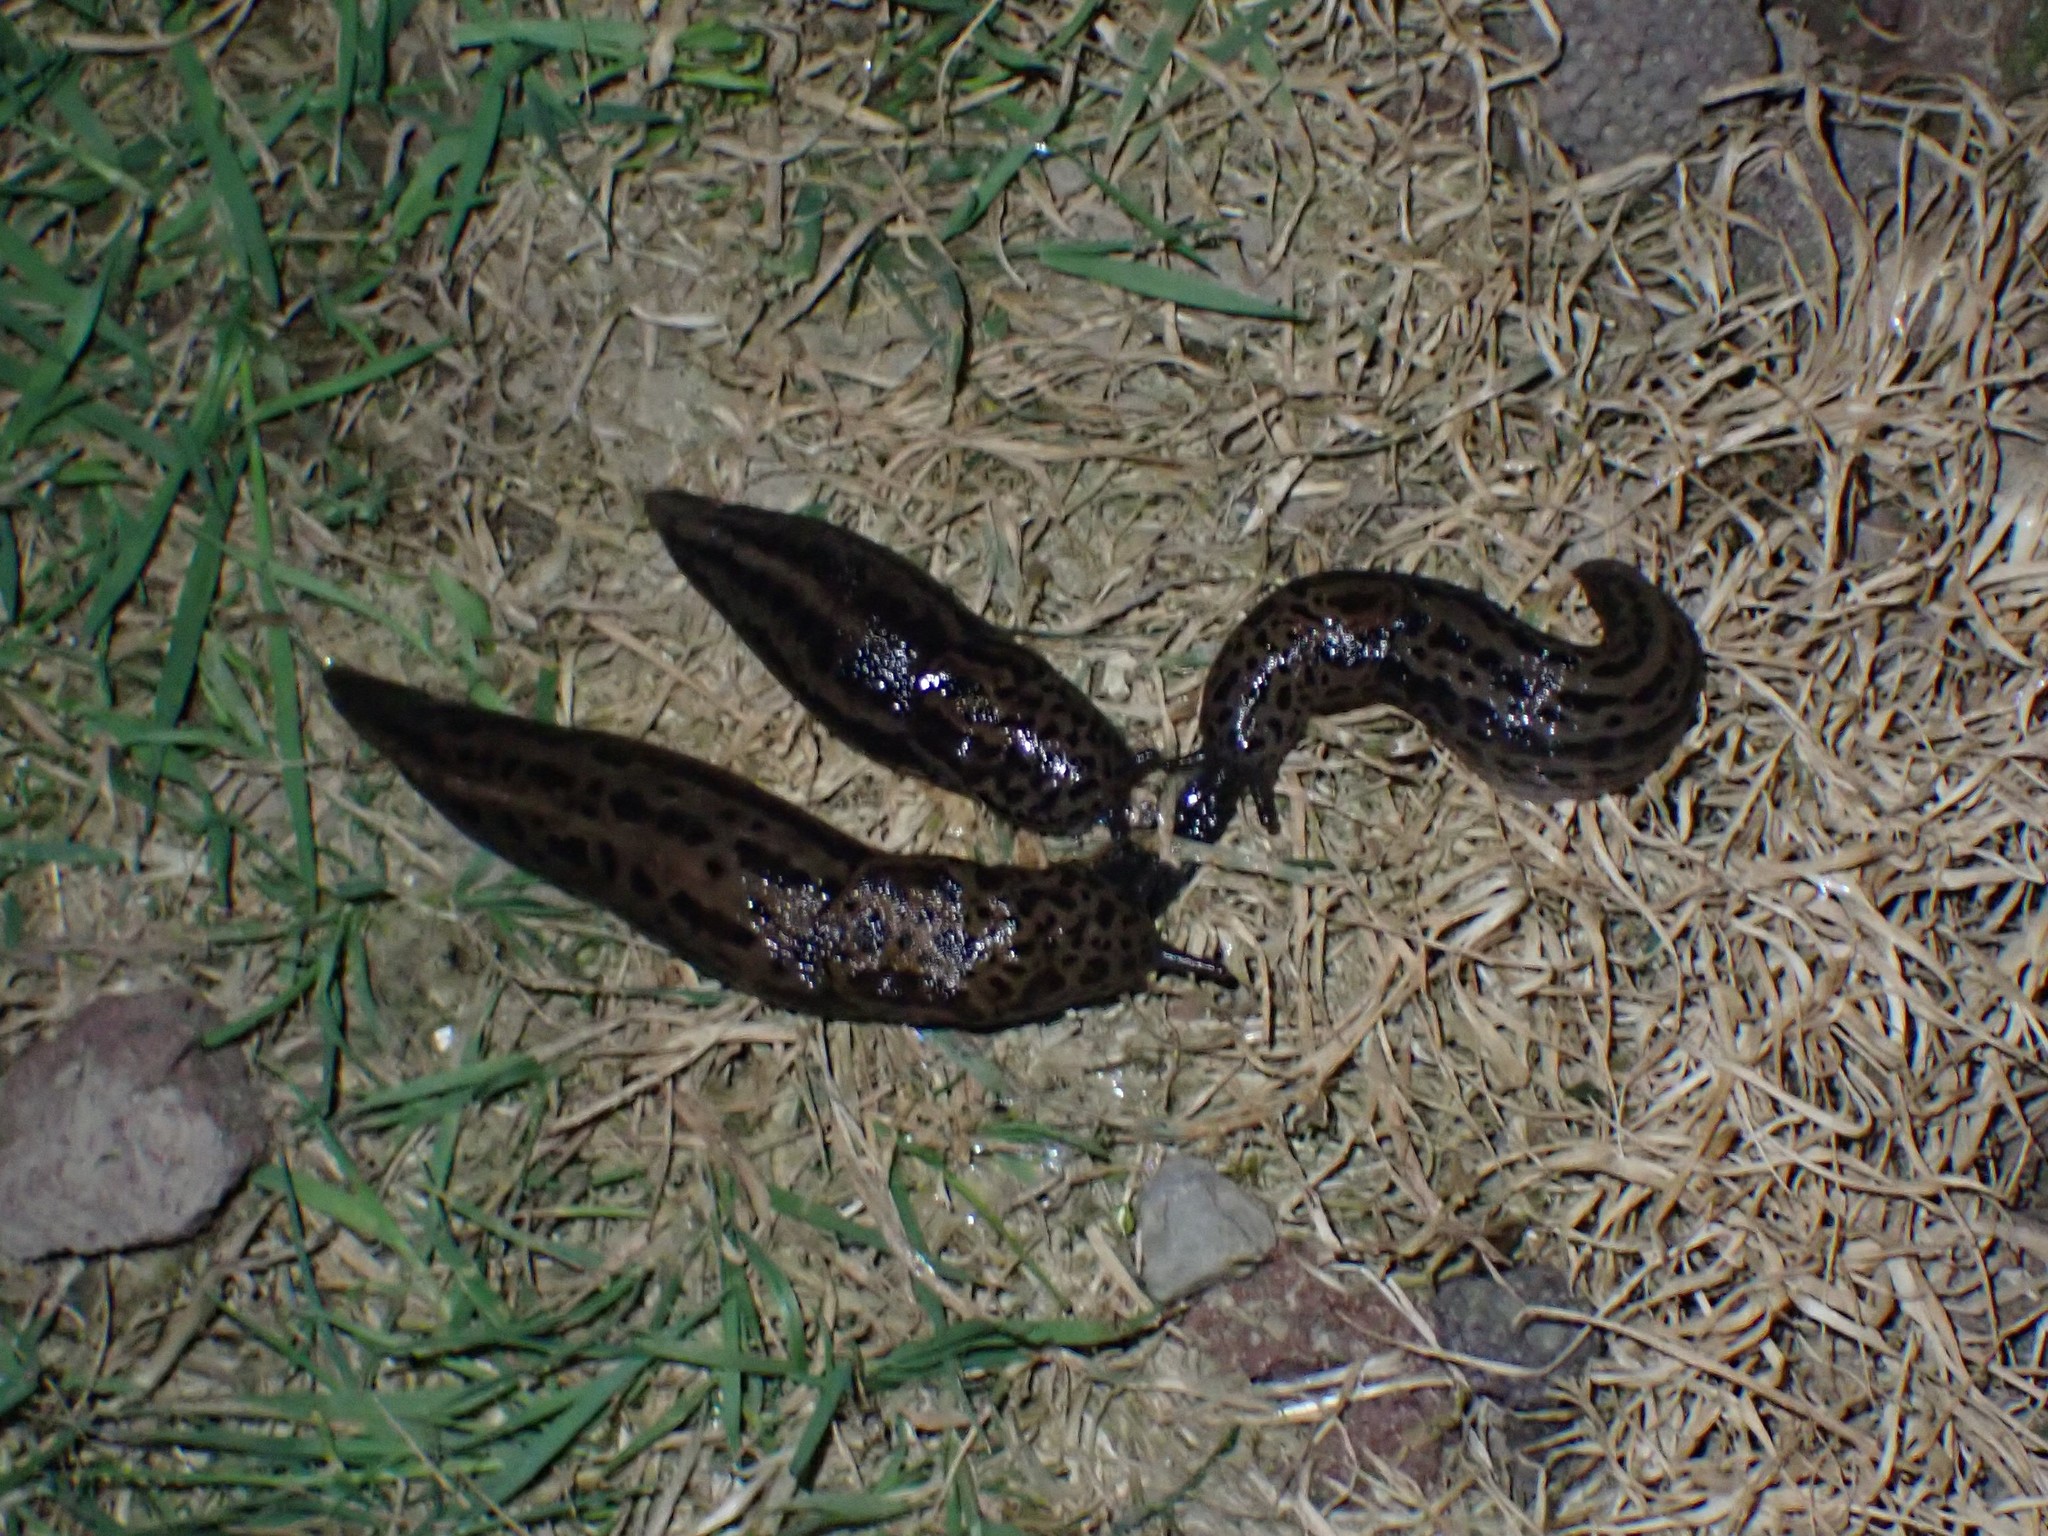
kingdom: Animalia
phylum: Mollusca
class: Gastropoda
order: Stylommatophora
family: Limacidae
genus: Limax
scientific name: Limax maximus
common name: Great grey slug
